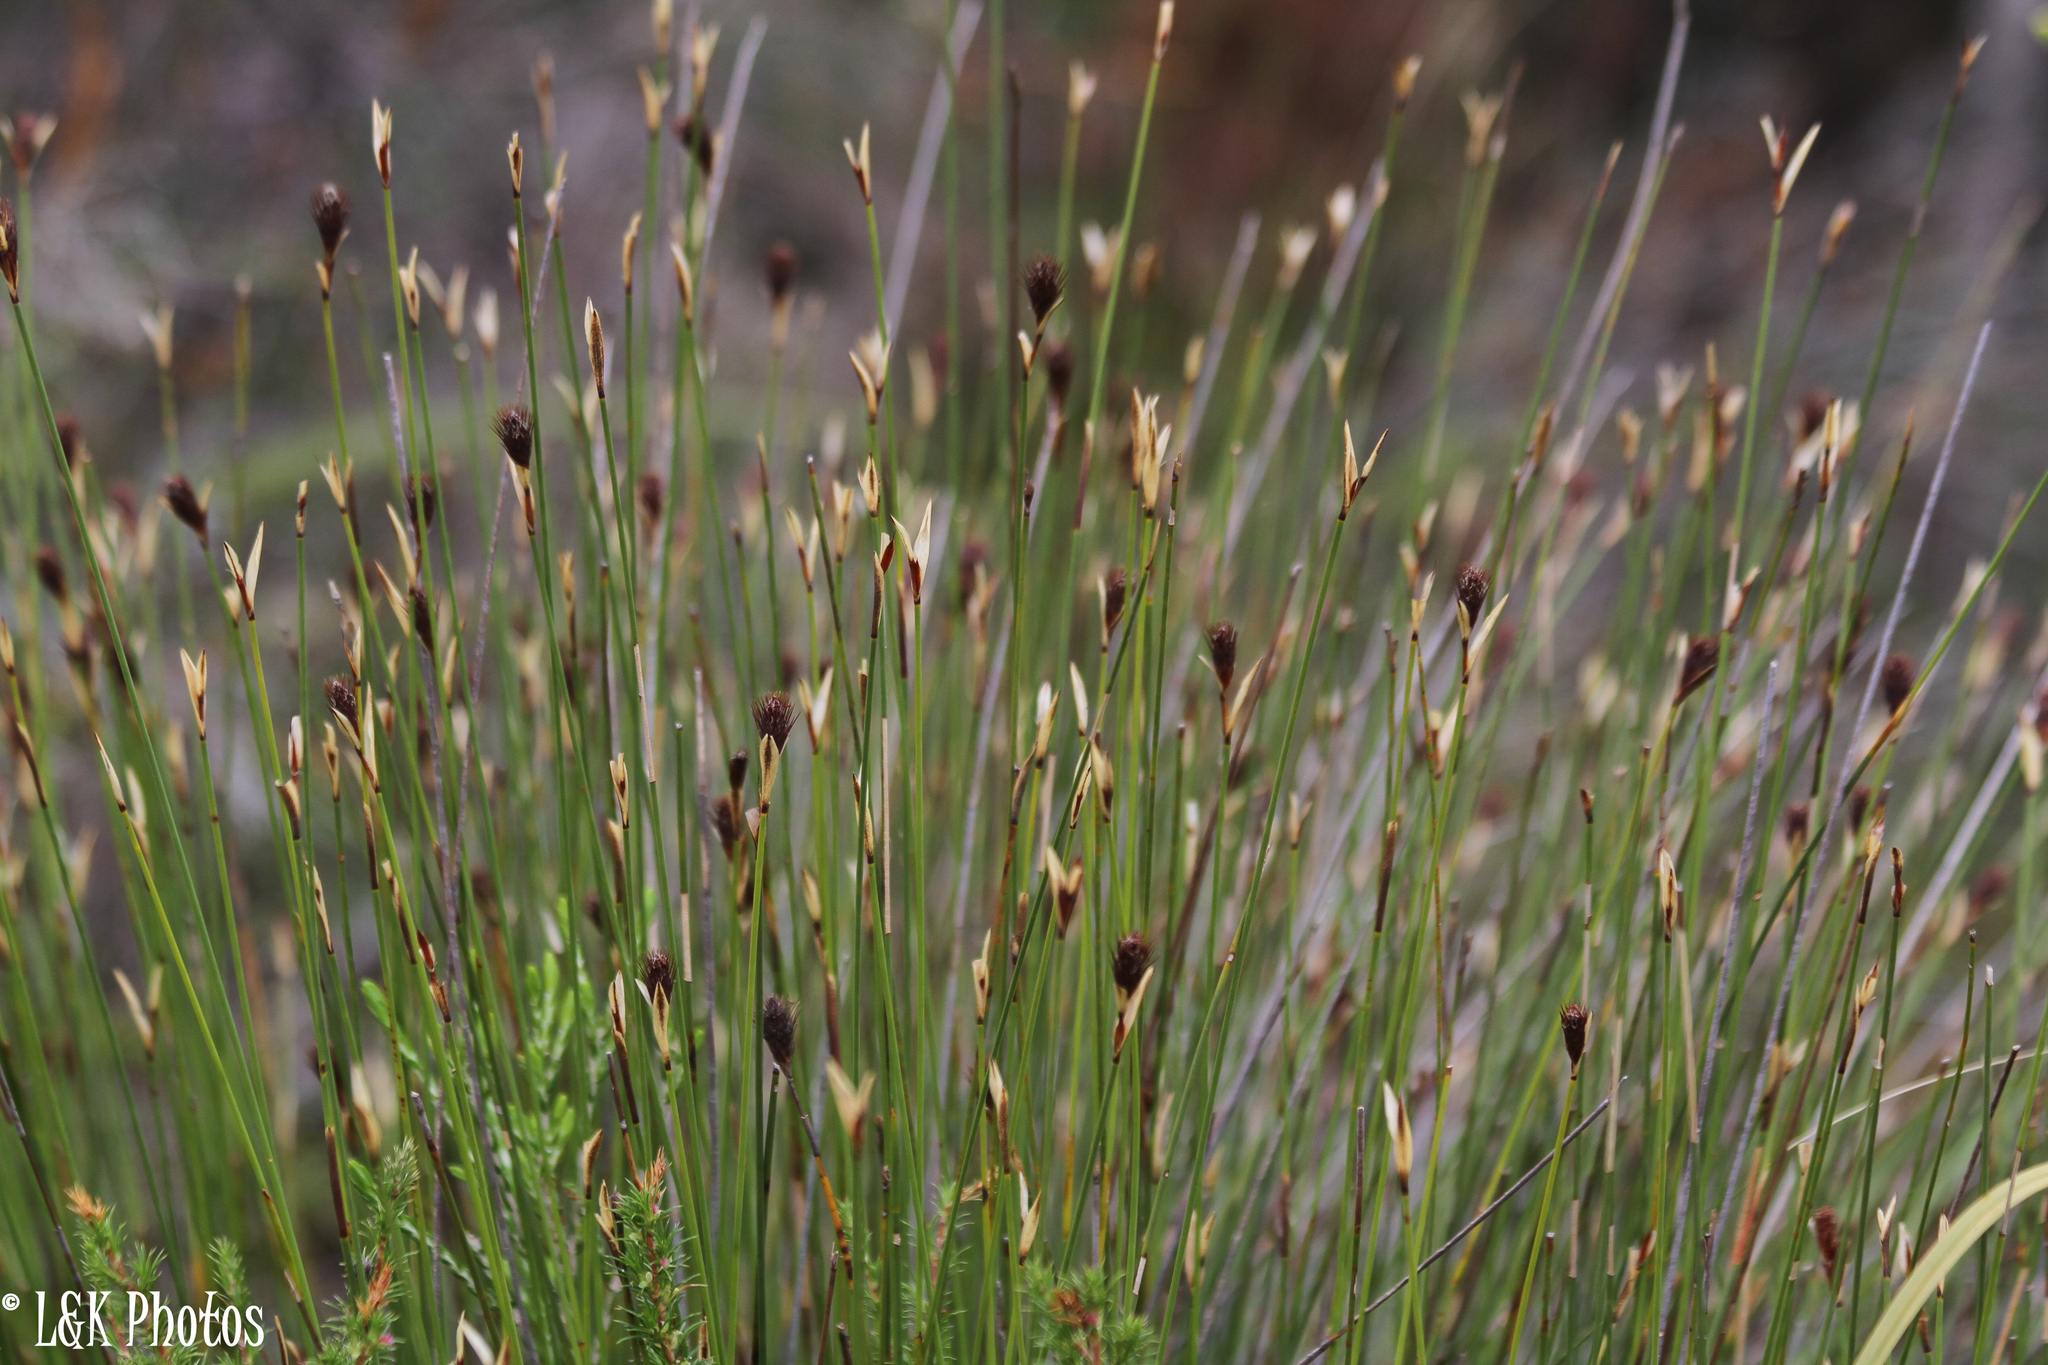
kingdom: Plantae
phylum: Tracheophyta
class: Liliopsida
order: Poales
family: Restionaceae
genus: Hypodiscus
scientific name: Hypodiscus aristatus
